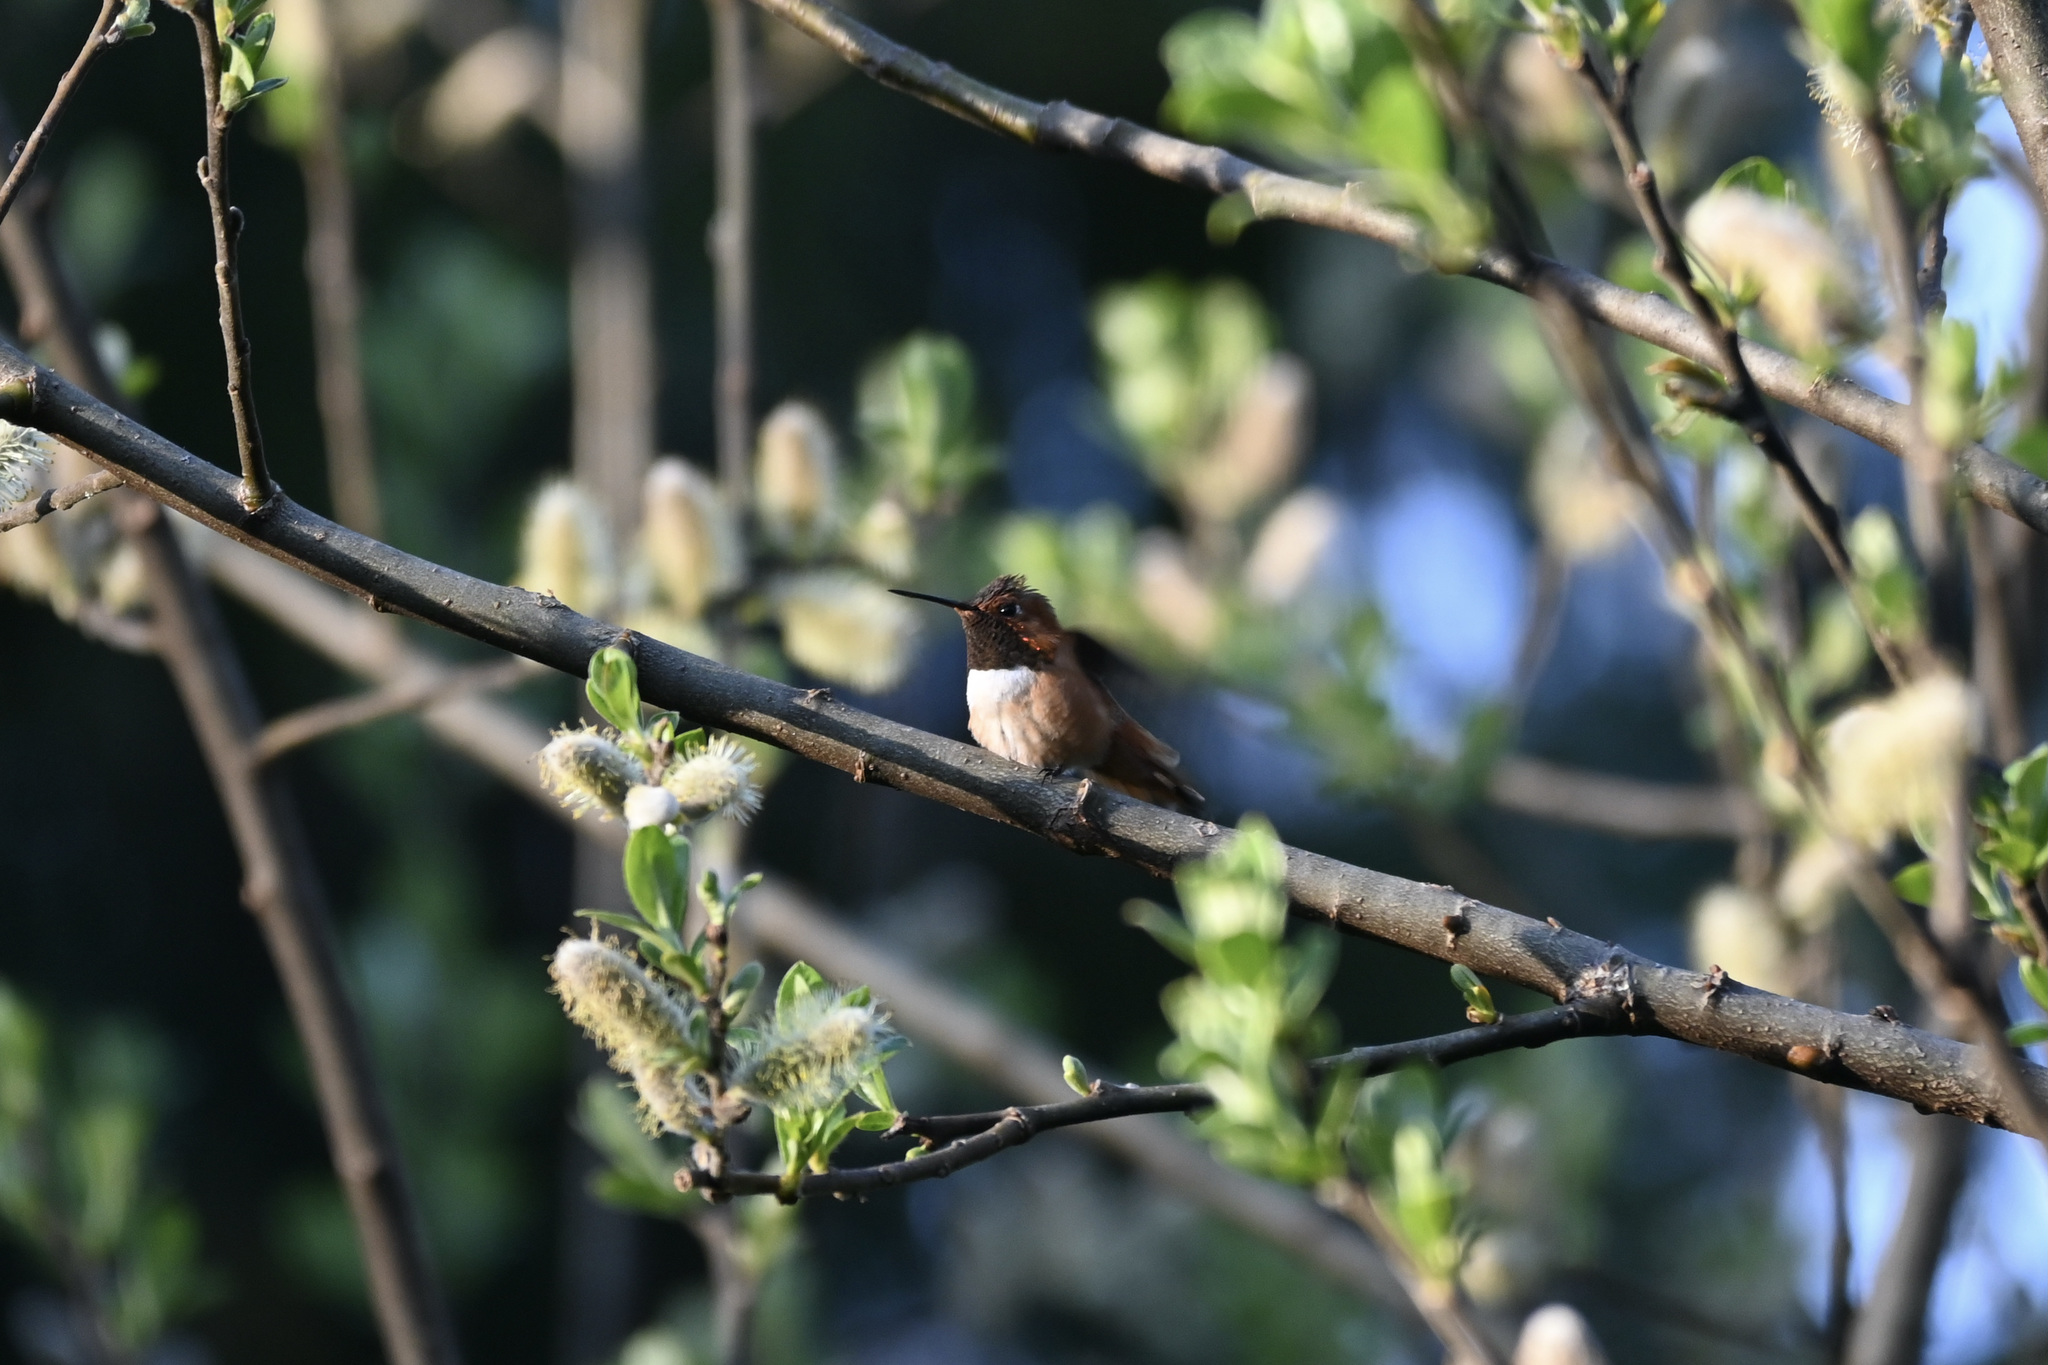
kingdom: Animalia
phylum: Chordata
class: Aves
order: Apodiformes
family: Trochilidae
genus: Selasphorus
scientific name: Selasphorus rufus
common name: Rufous hummingbird
